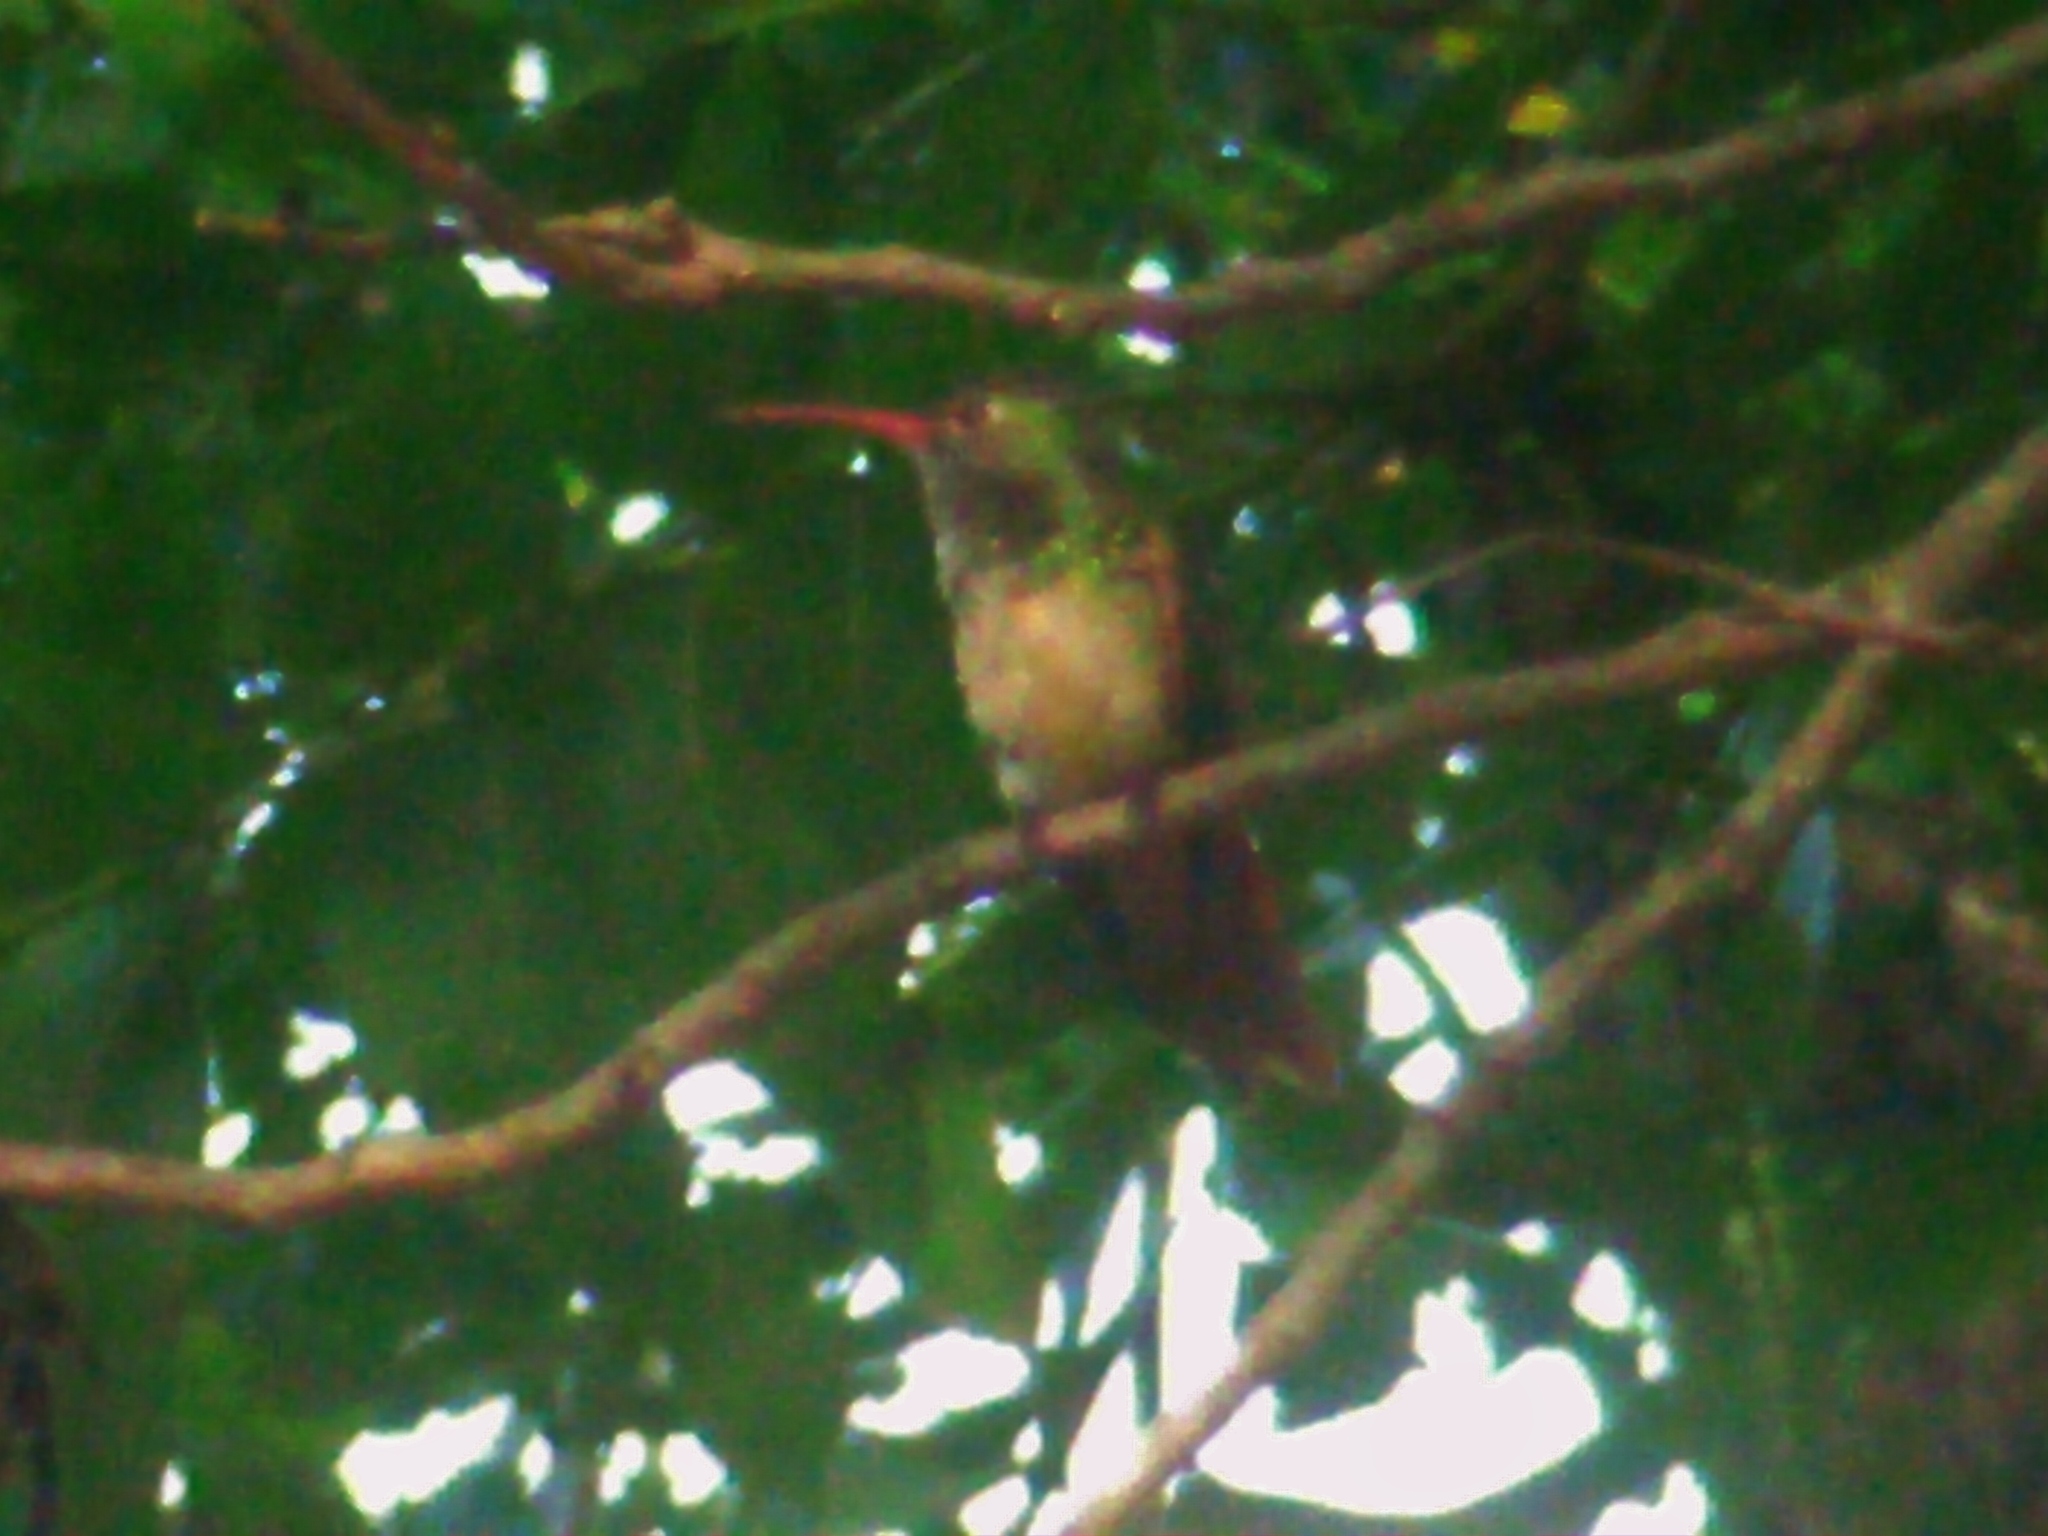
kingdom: Animalia
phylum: Chordata
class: Aves
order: Apodiformes
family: Trochilidae
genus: Amazilia
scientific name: Amazilia yucatanensis
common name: Buff-bellied hummingbird
